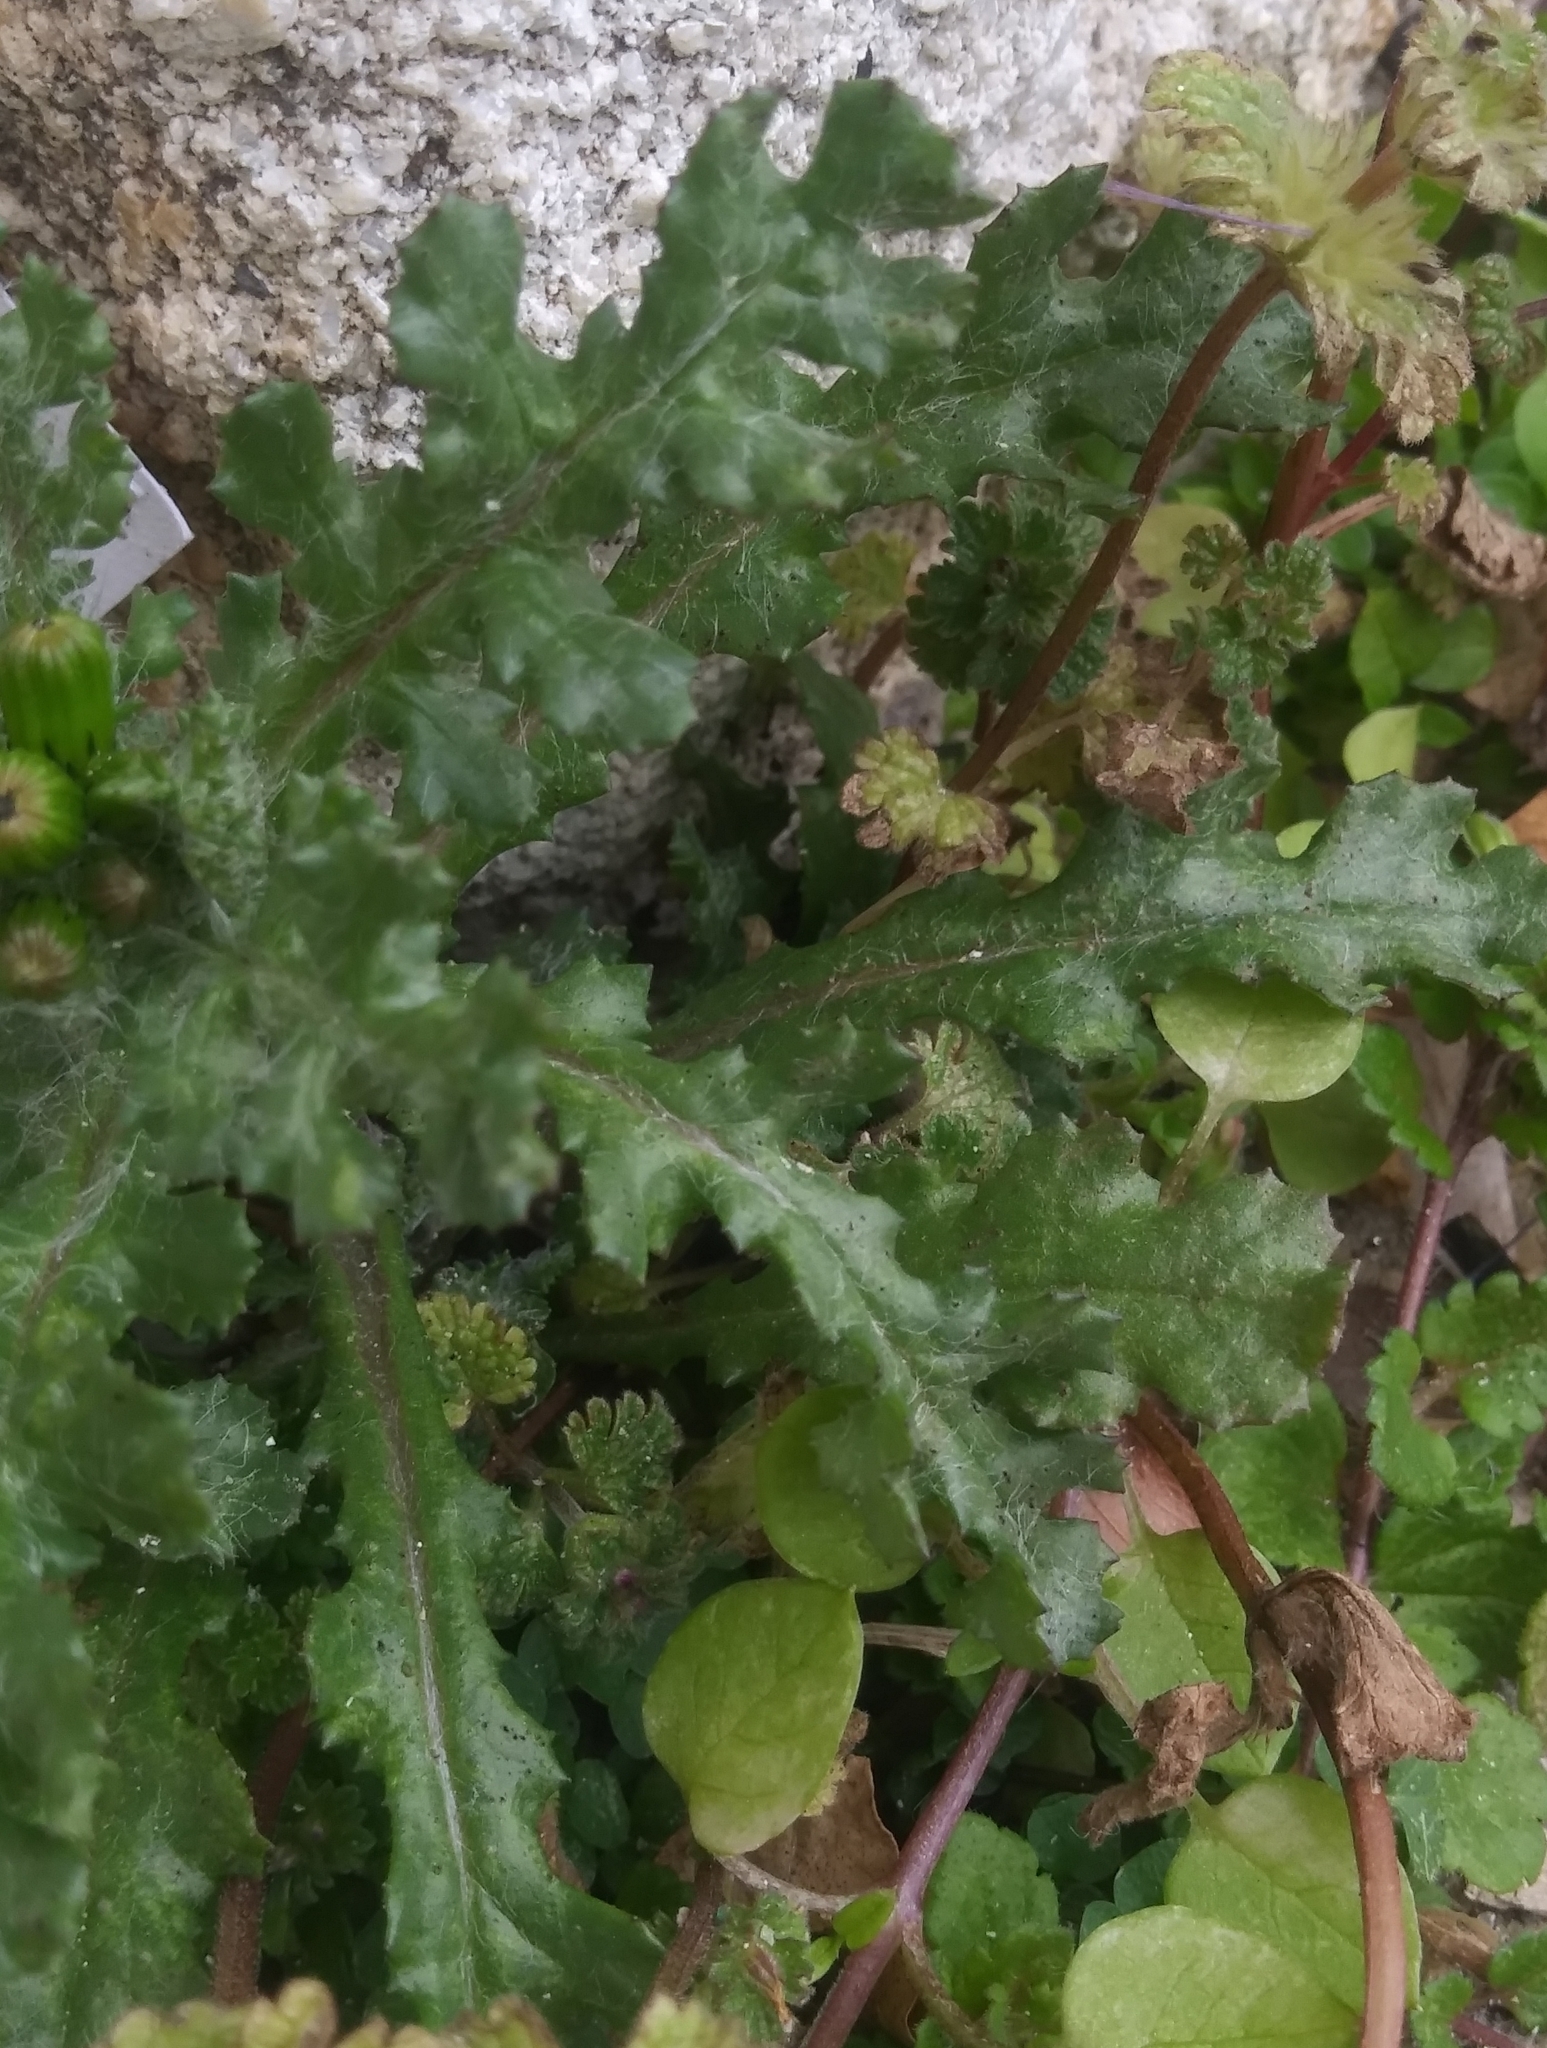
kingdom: Plantae
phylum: Tracheophyta
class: Magnoliopsida
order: Asterales
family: Asteraceae
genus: Senecio
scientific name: Senecio vulgaris
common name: Old-man-in-the-spring
